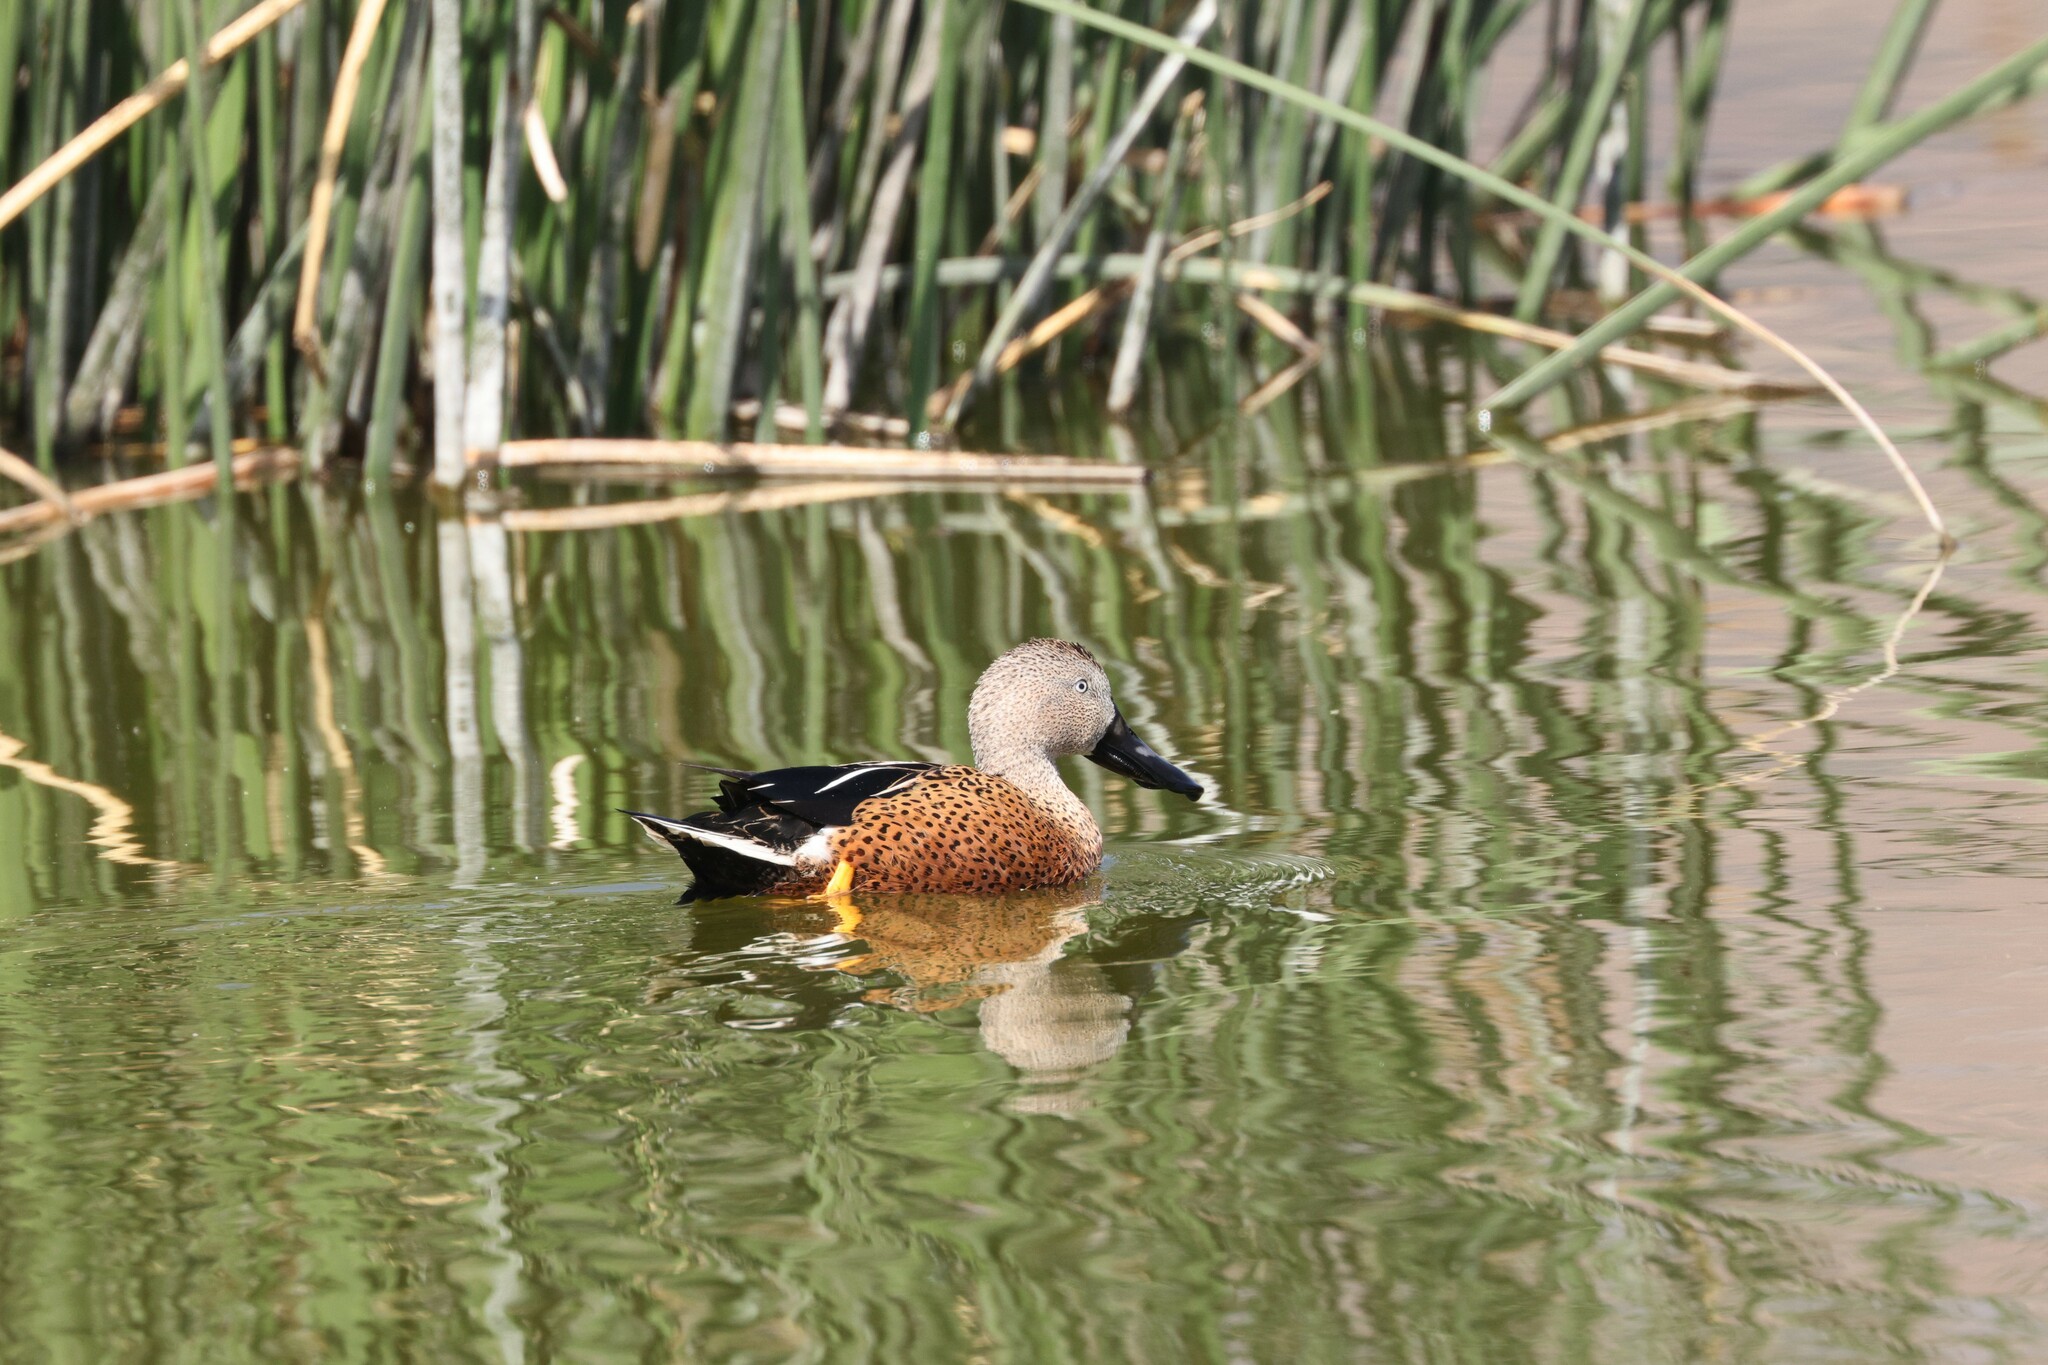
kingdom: Animalia
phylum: Chordata
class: Aves
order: Anseriformes
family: Anatidae
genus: Spatula
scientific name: Spatula platalea
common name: Red shoveler
